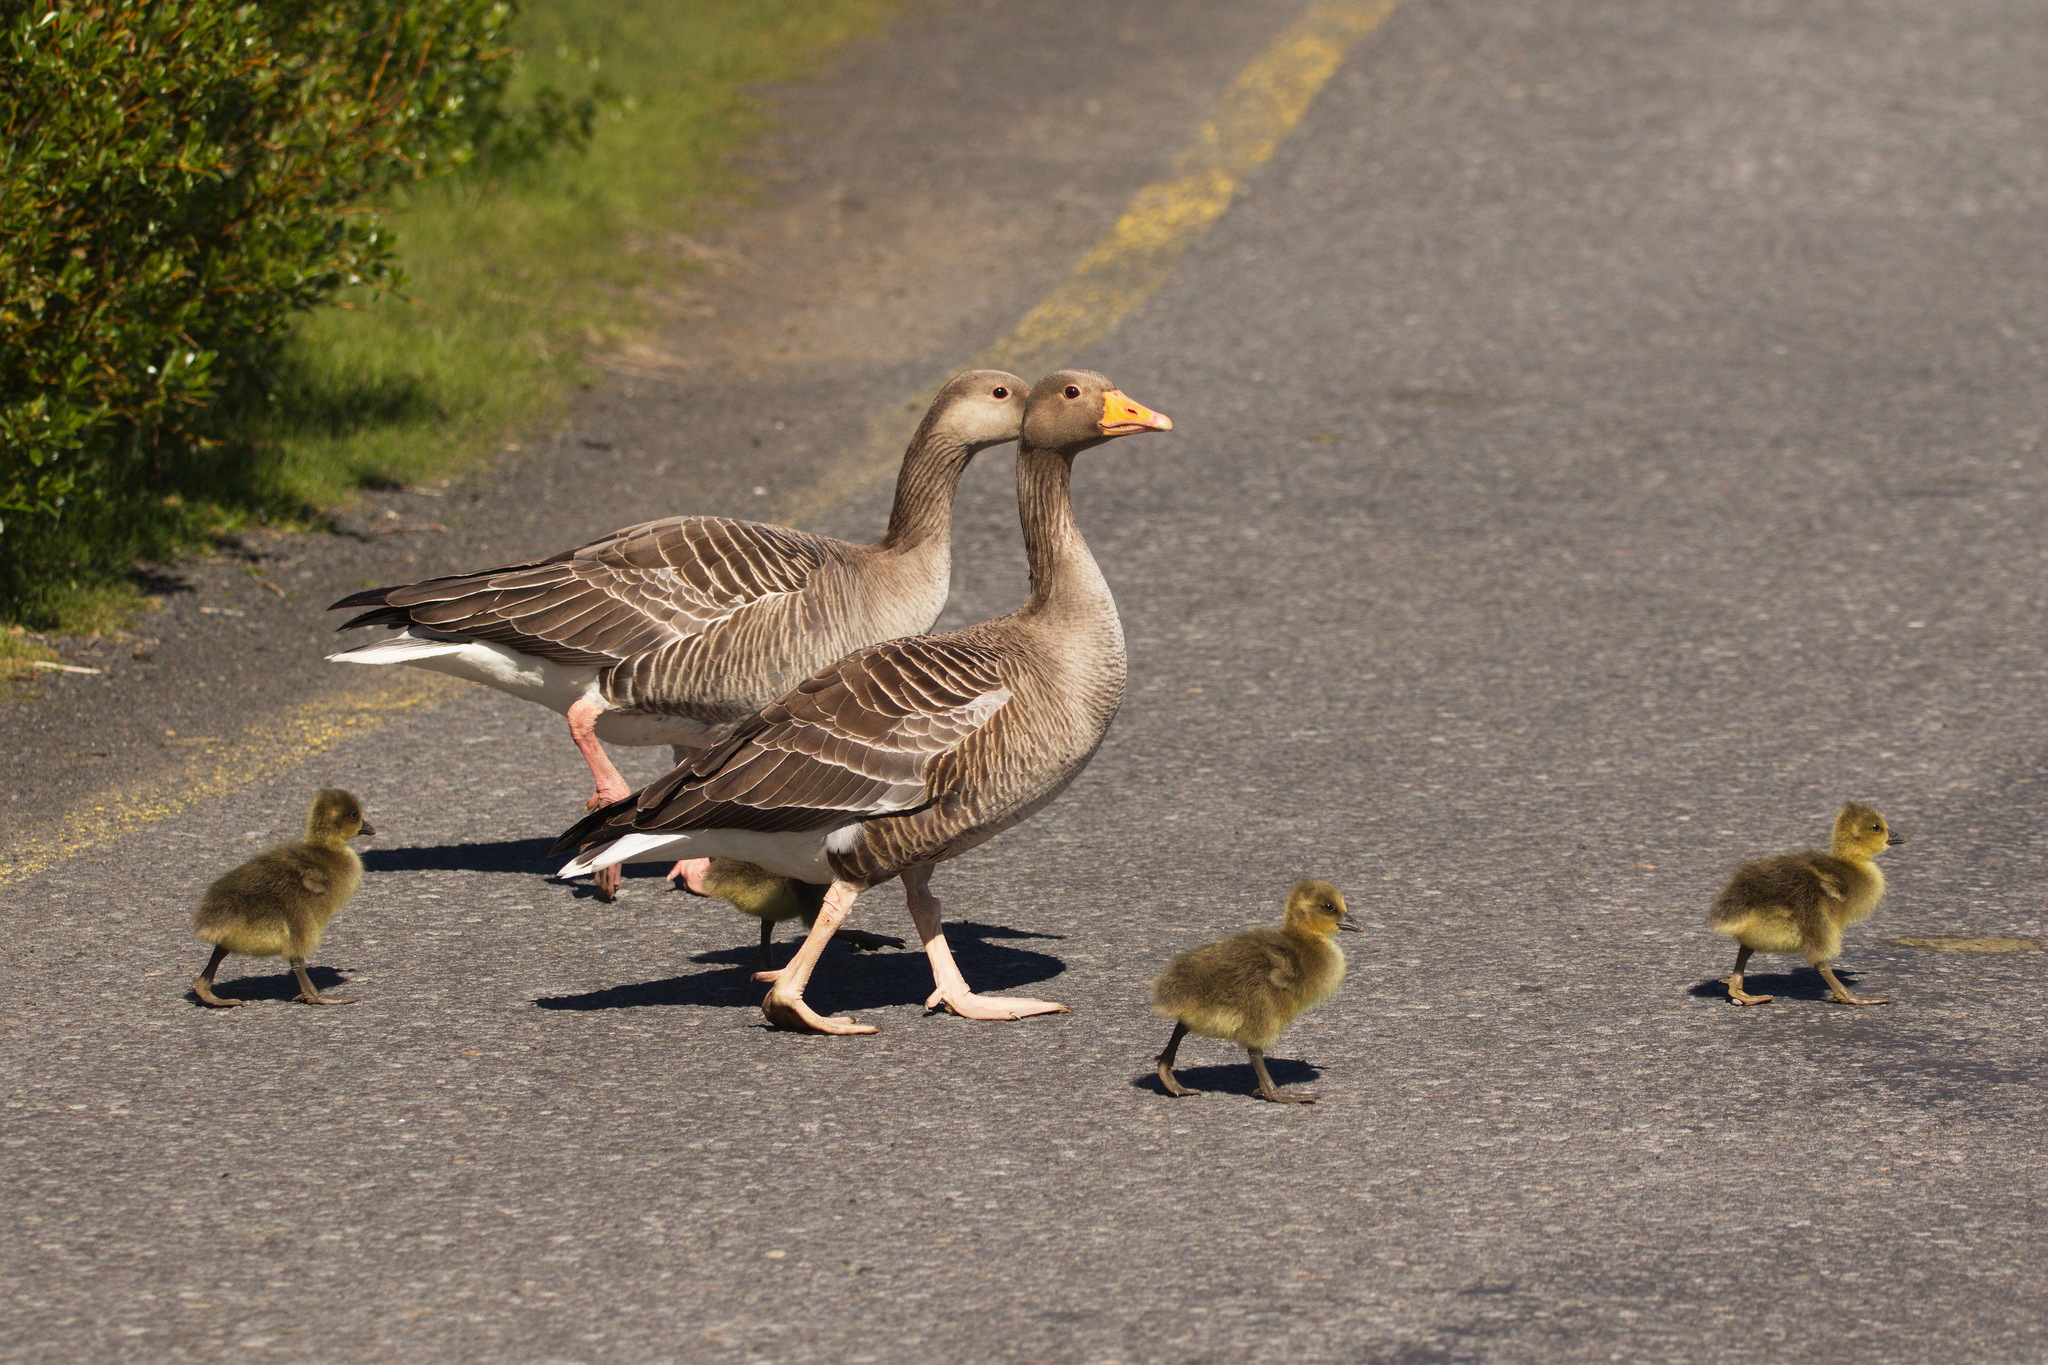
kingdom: Animalia
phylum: Chordata
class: Aves
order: Anseriformes
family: Anatidae
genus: Anser
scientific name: Anser anser
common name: Greylag goose
